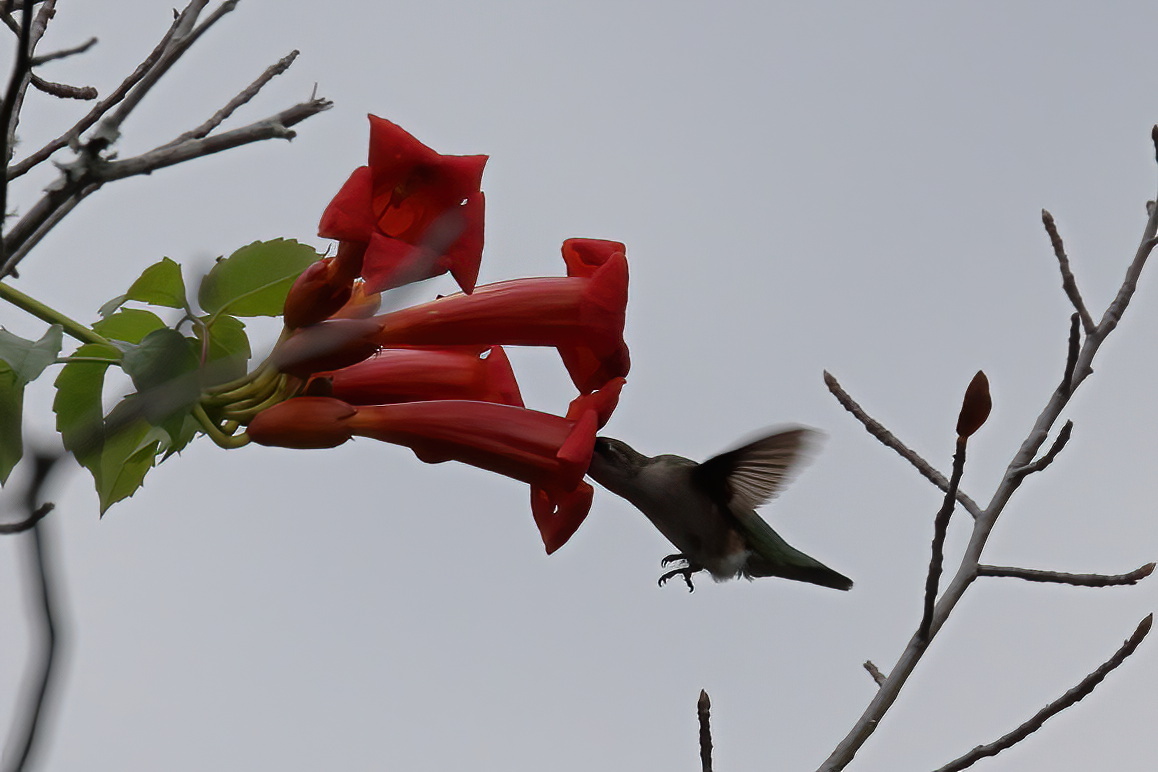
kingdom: Animalia
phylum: Chordata
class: Aves
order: Apodiformes
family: Trochilidae
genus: Archilochus
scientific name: Archilochus colubris
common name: Ruby-throated hummingbird
